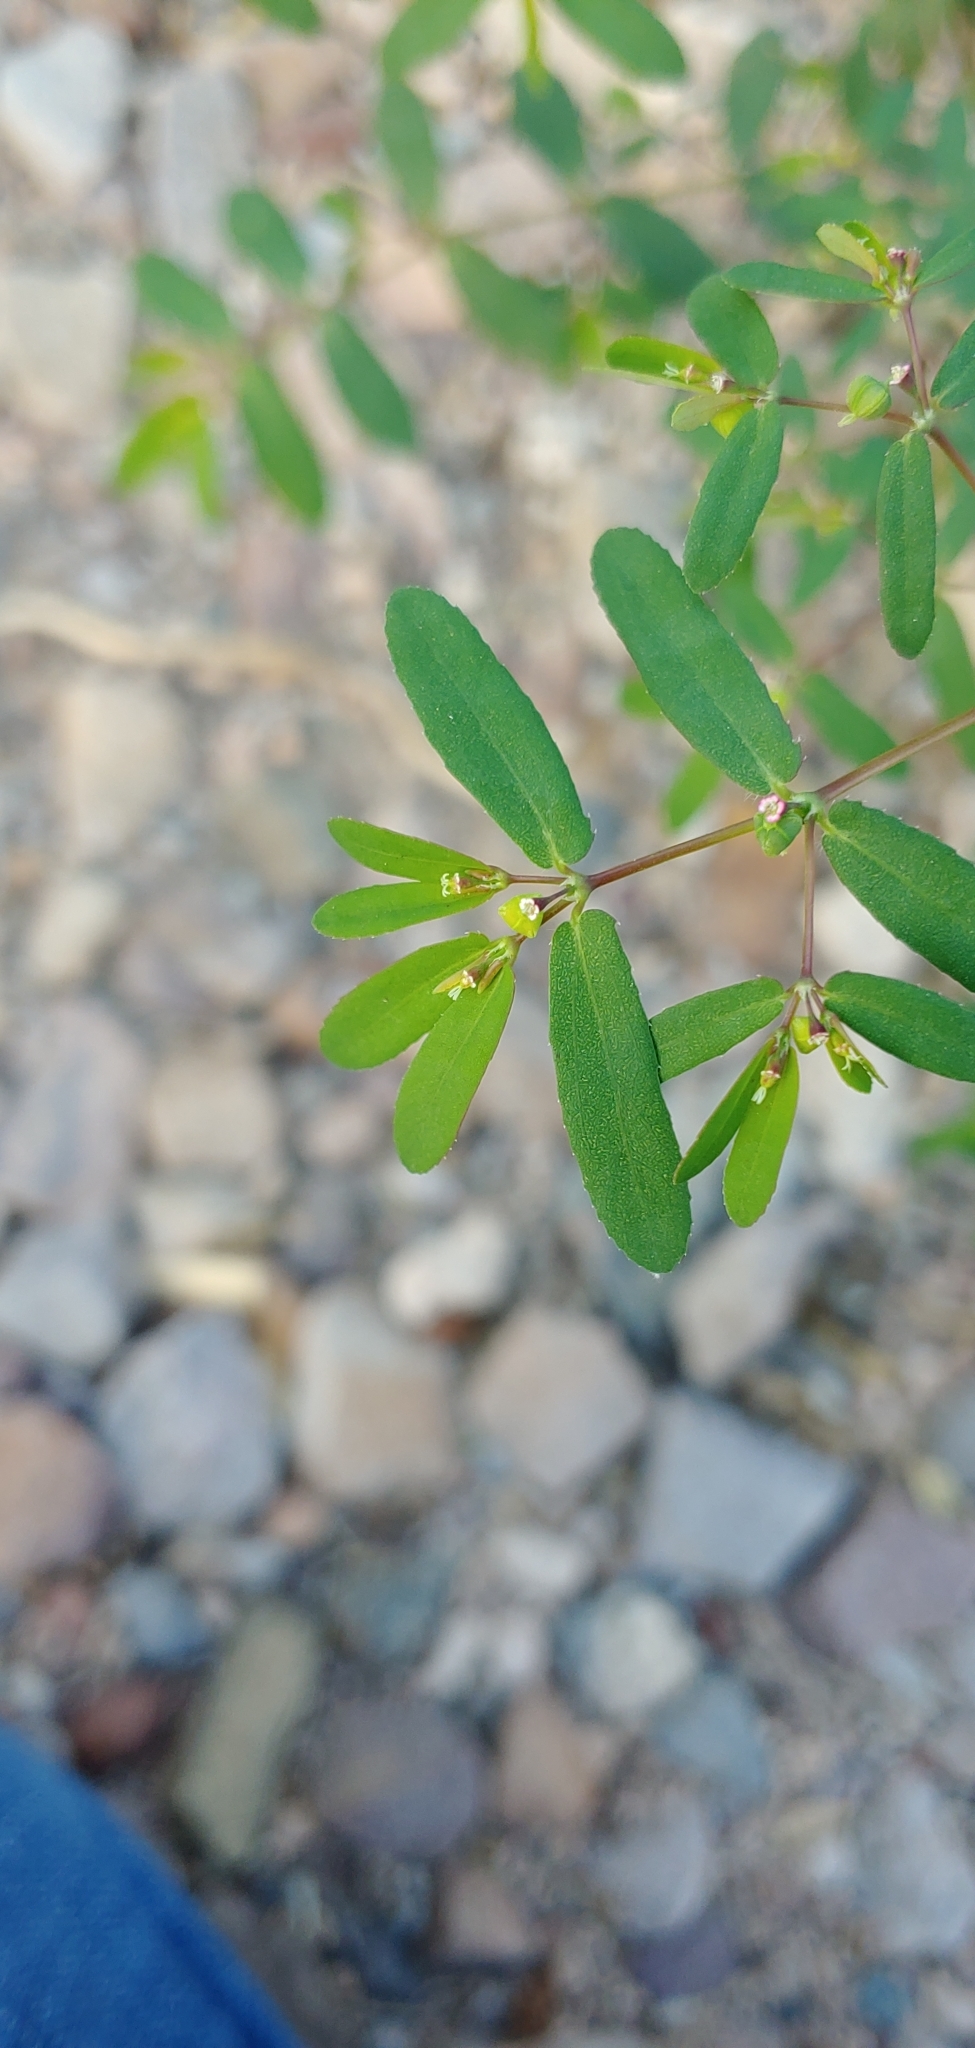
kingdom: Plantae
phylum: Tracheophyta
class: Magnoliopsida
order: Malpighiales
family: Euphorbiaceae
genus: Euphorbia
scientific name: Euphorbia hyssopifolia
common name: Hyssopleaf sandmat
